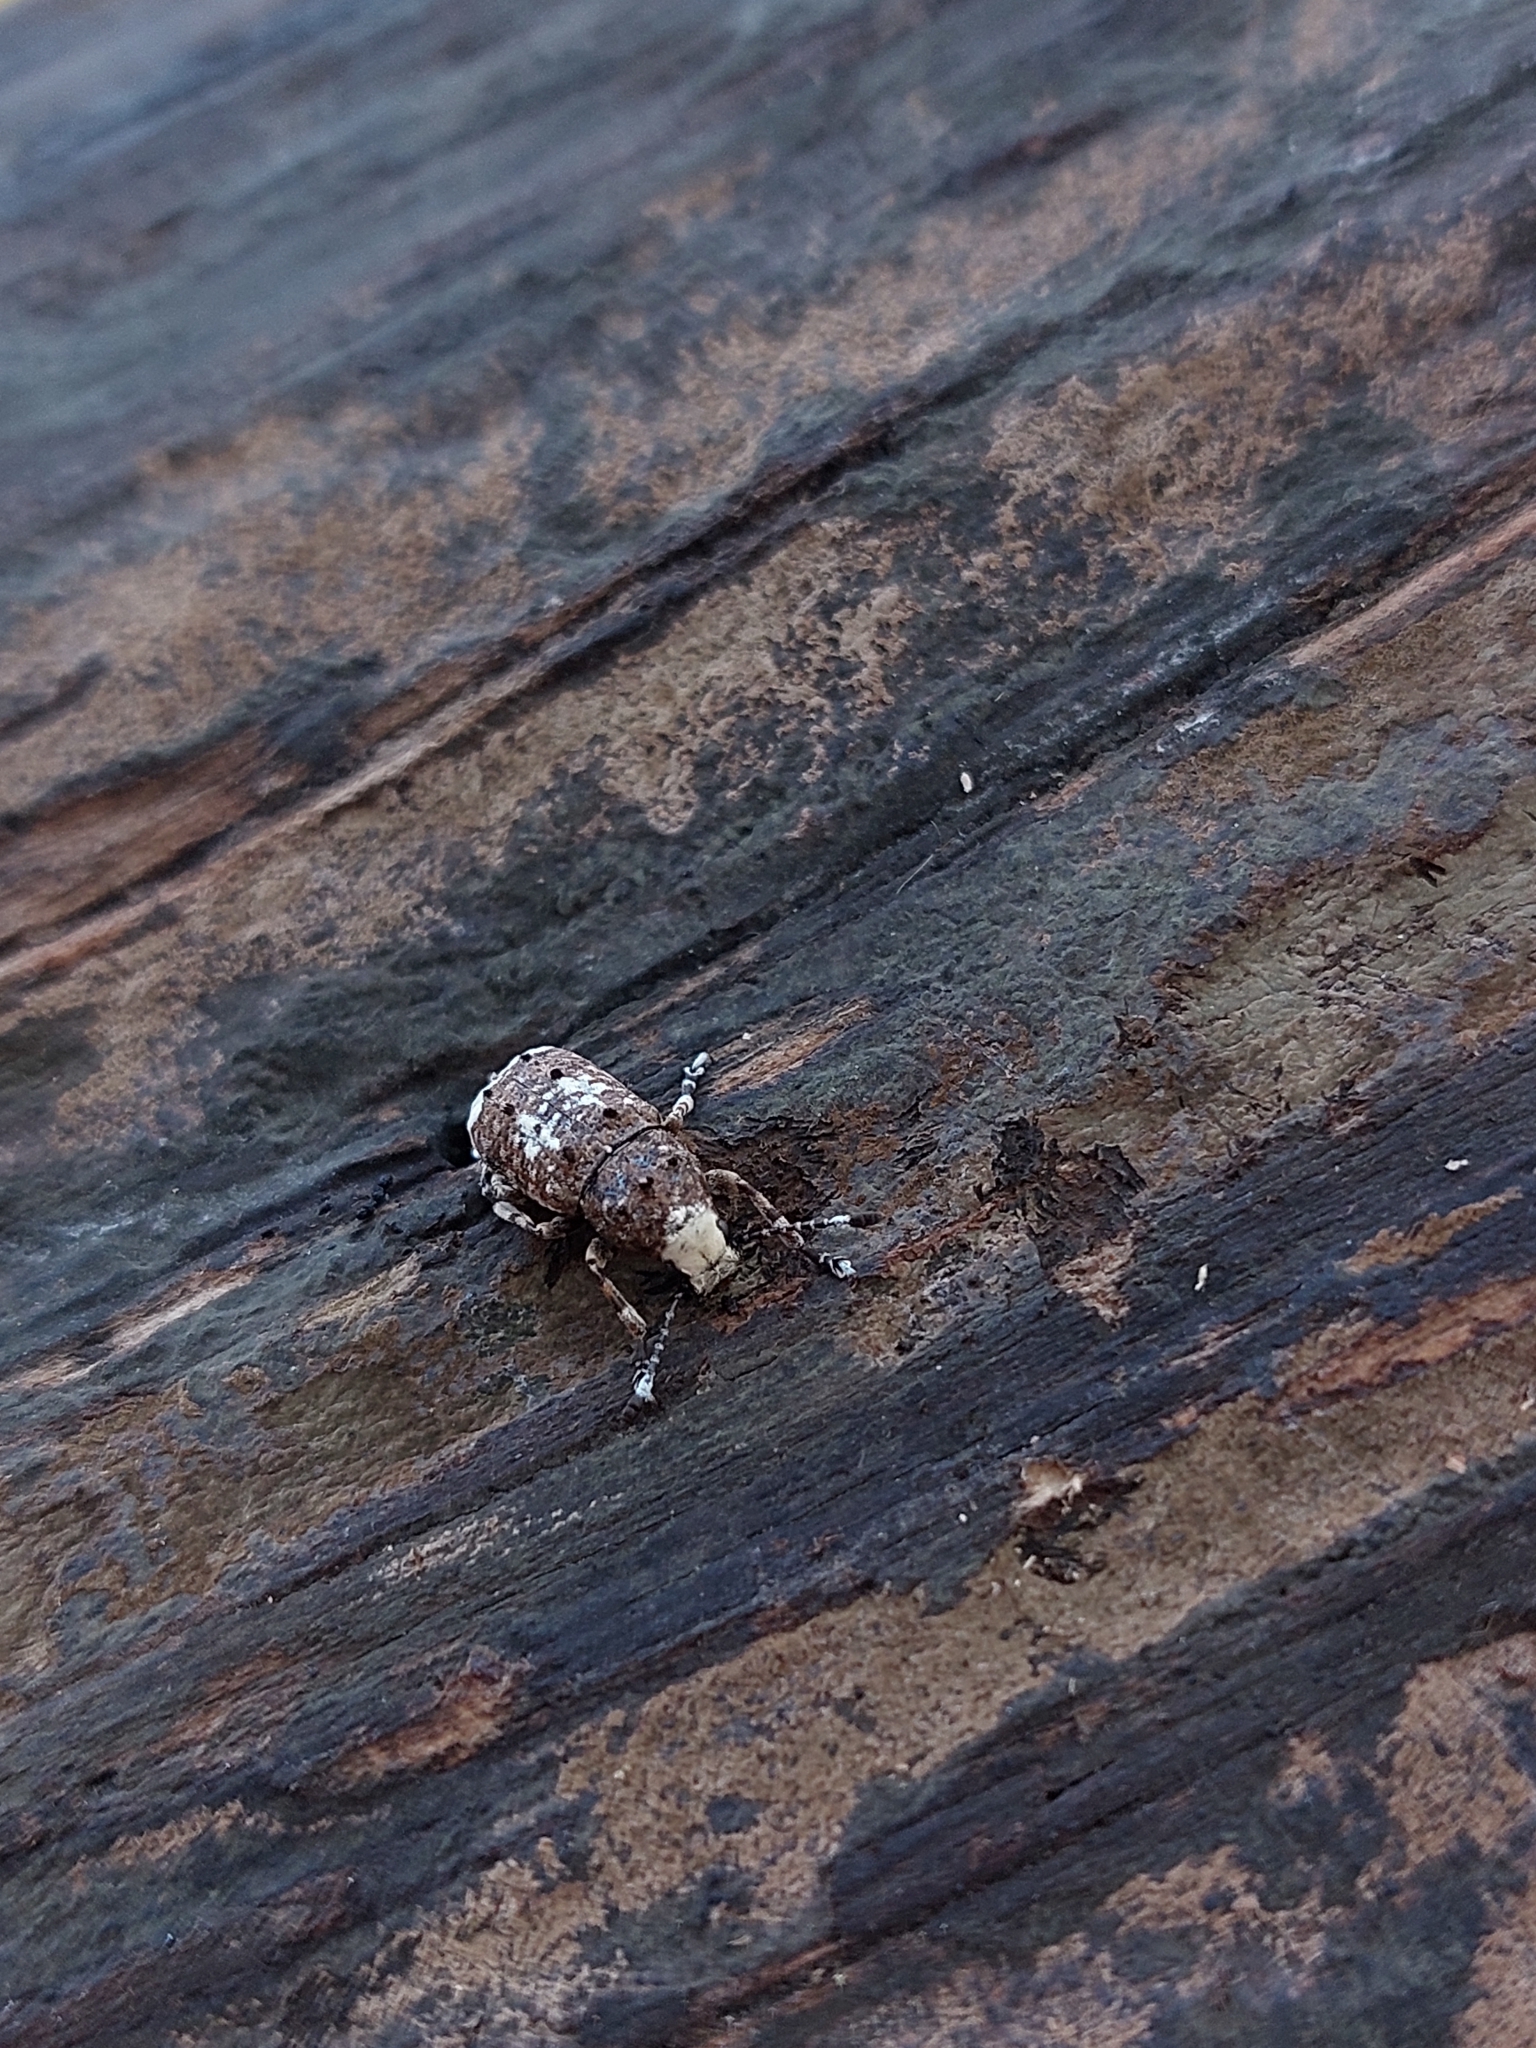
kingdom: Animalia
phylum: Arthropoda
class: Insecta
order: Coleoptera
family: Anthribidae
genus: Platystomos
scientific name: Platystomos albinus
